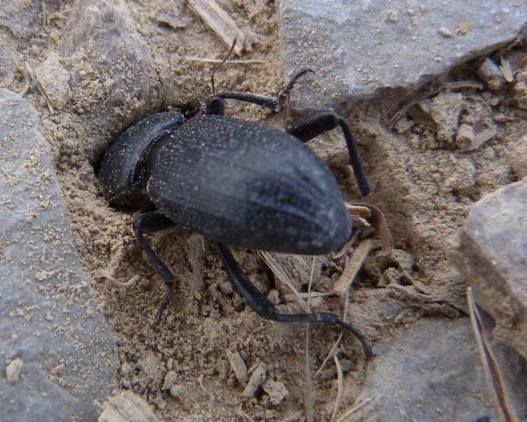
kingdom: Animalia
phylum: Arthropoda
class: Insecta
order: Coleoptera
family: Tenebrionidae
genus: Scaurus
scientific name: Scaurus uncinus
